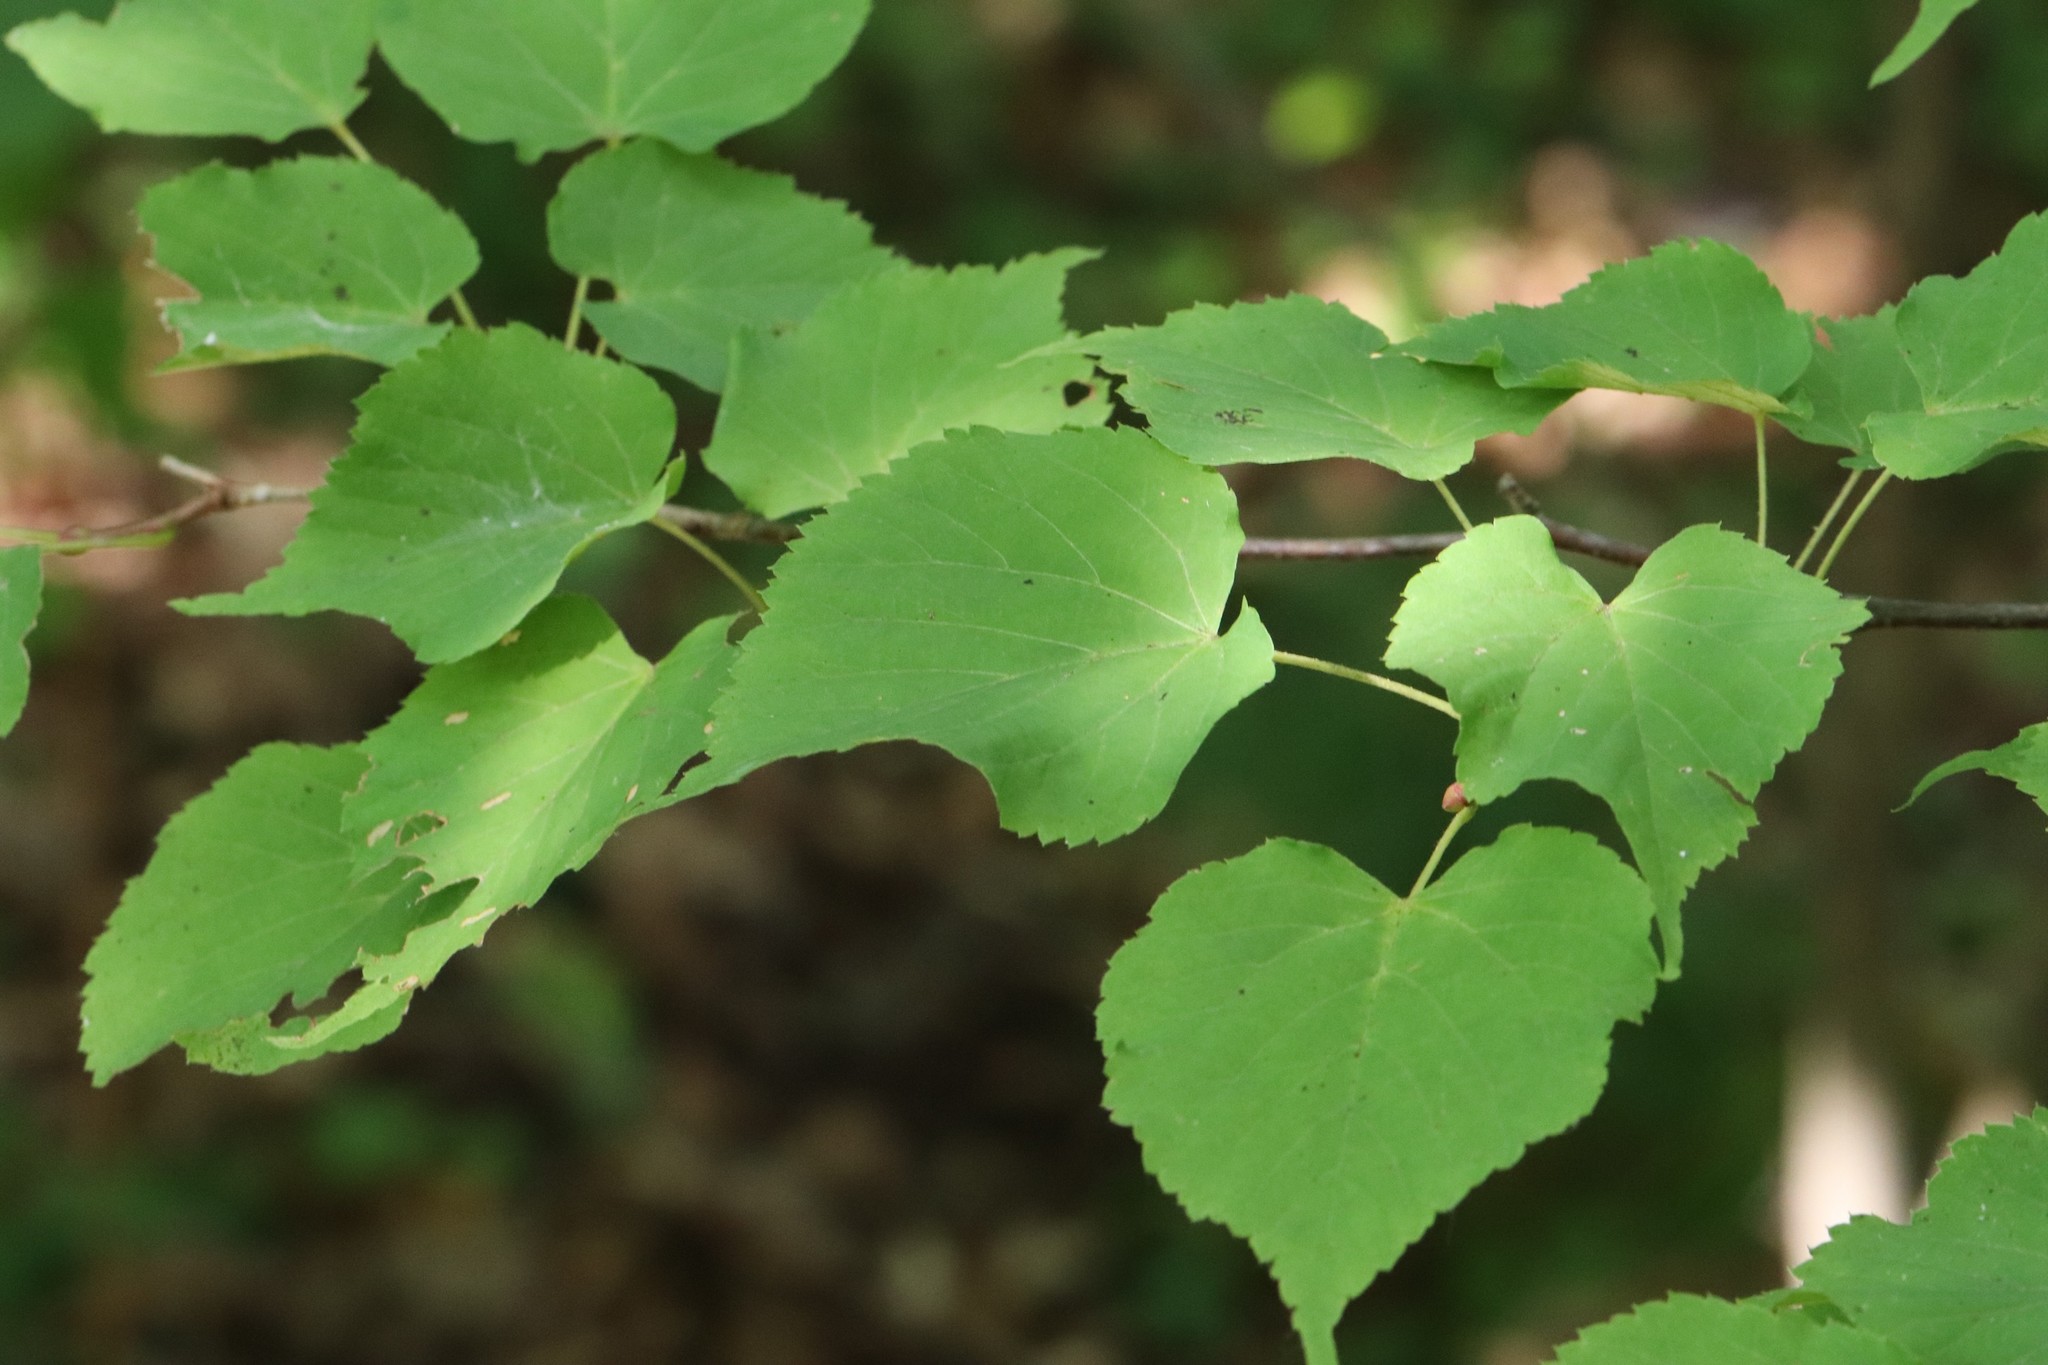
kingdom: Plantae
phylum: Tracheophyta
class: Magnoliopsida
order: Malvales
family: Malvaceae
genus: Tilia
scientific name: Tilia amurensis
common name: Amur lime
